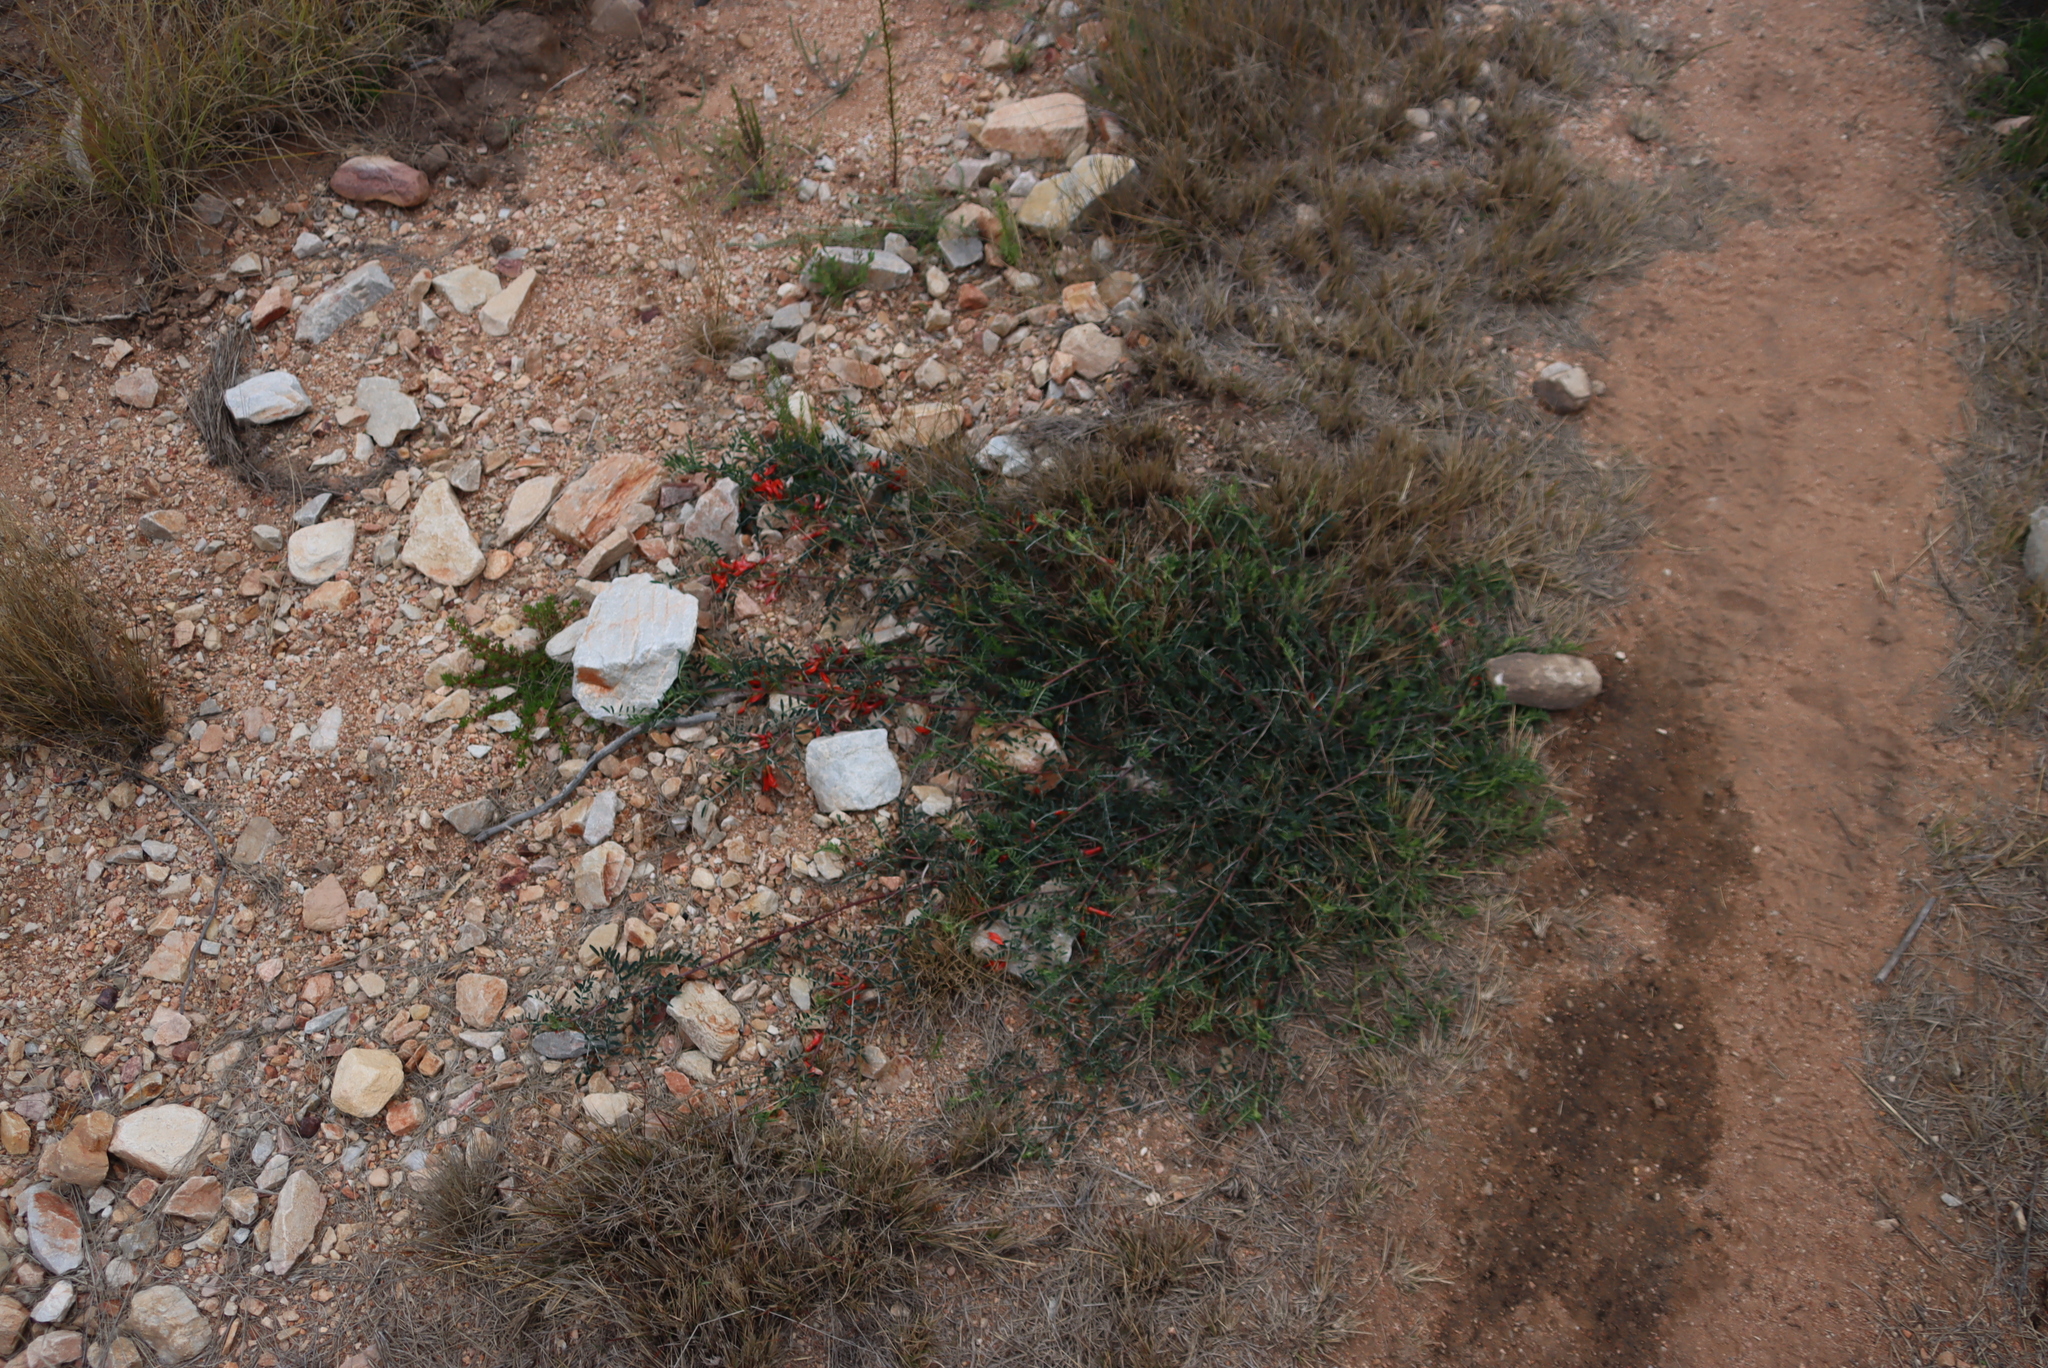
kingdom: Plantae
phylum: Tracheophyta
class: Magnoliopsida
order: Fabales
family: Fabaceae
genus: Lessertia
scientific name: Lessertia frutescens
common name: Balloon-pea
